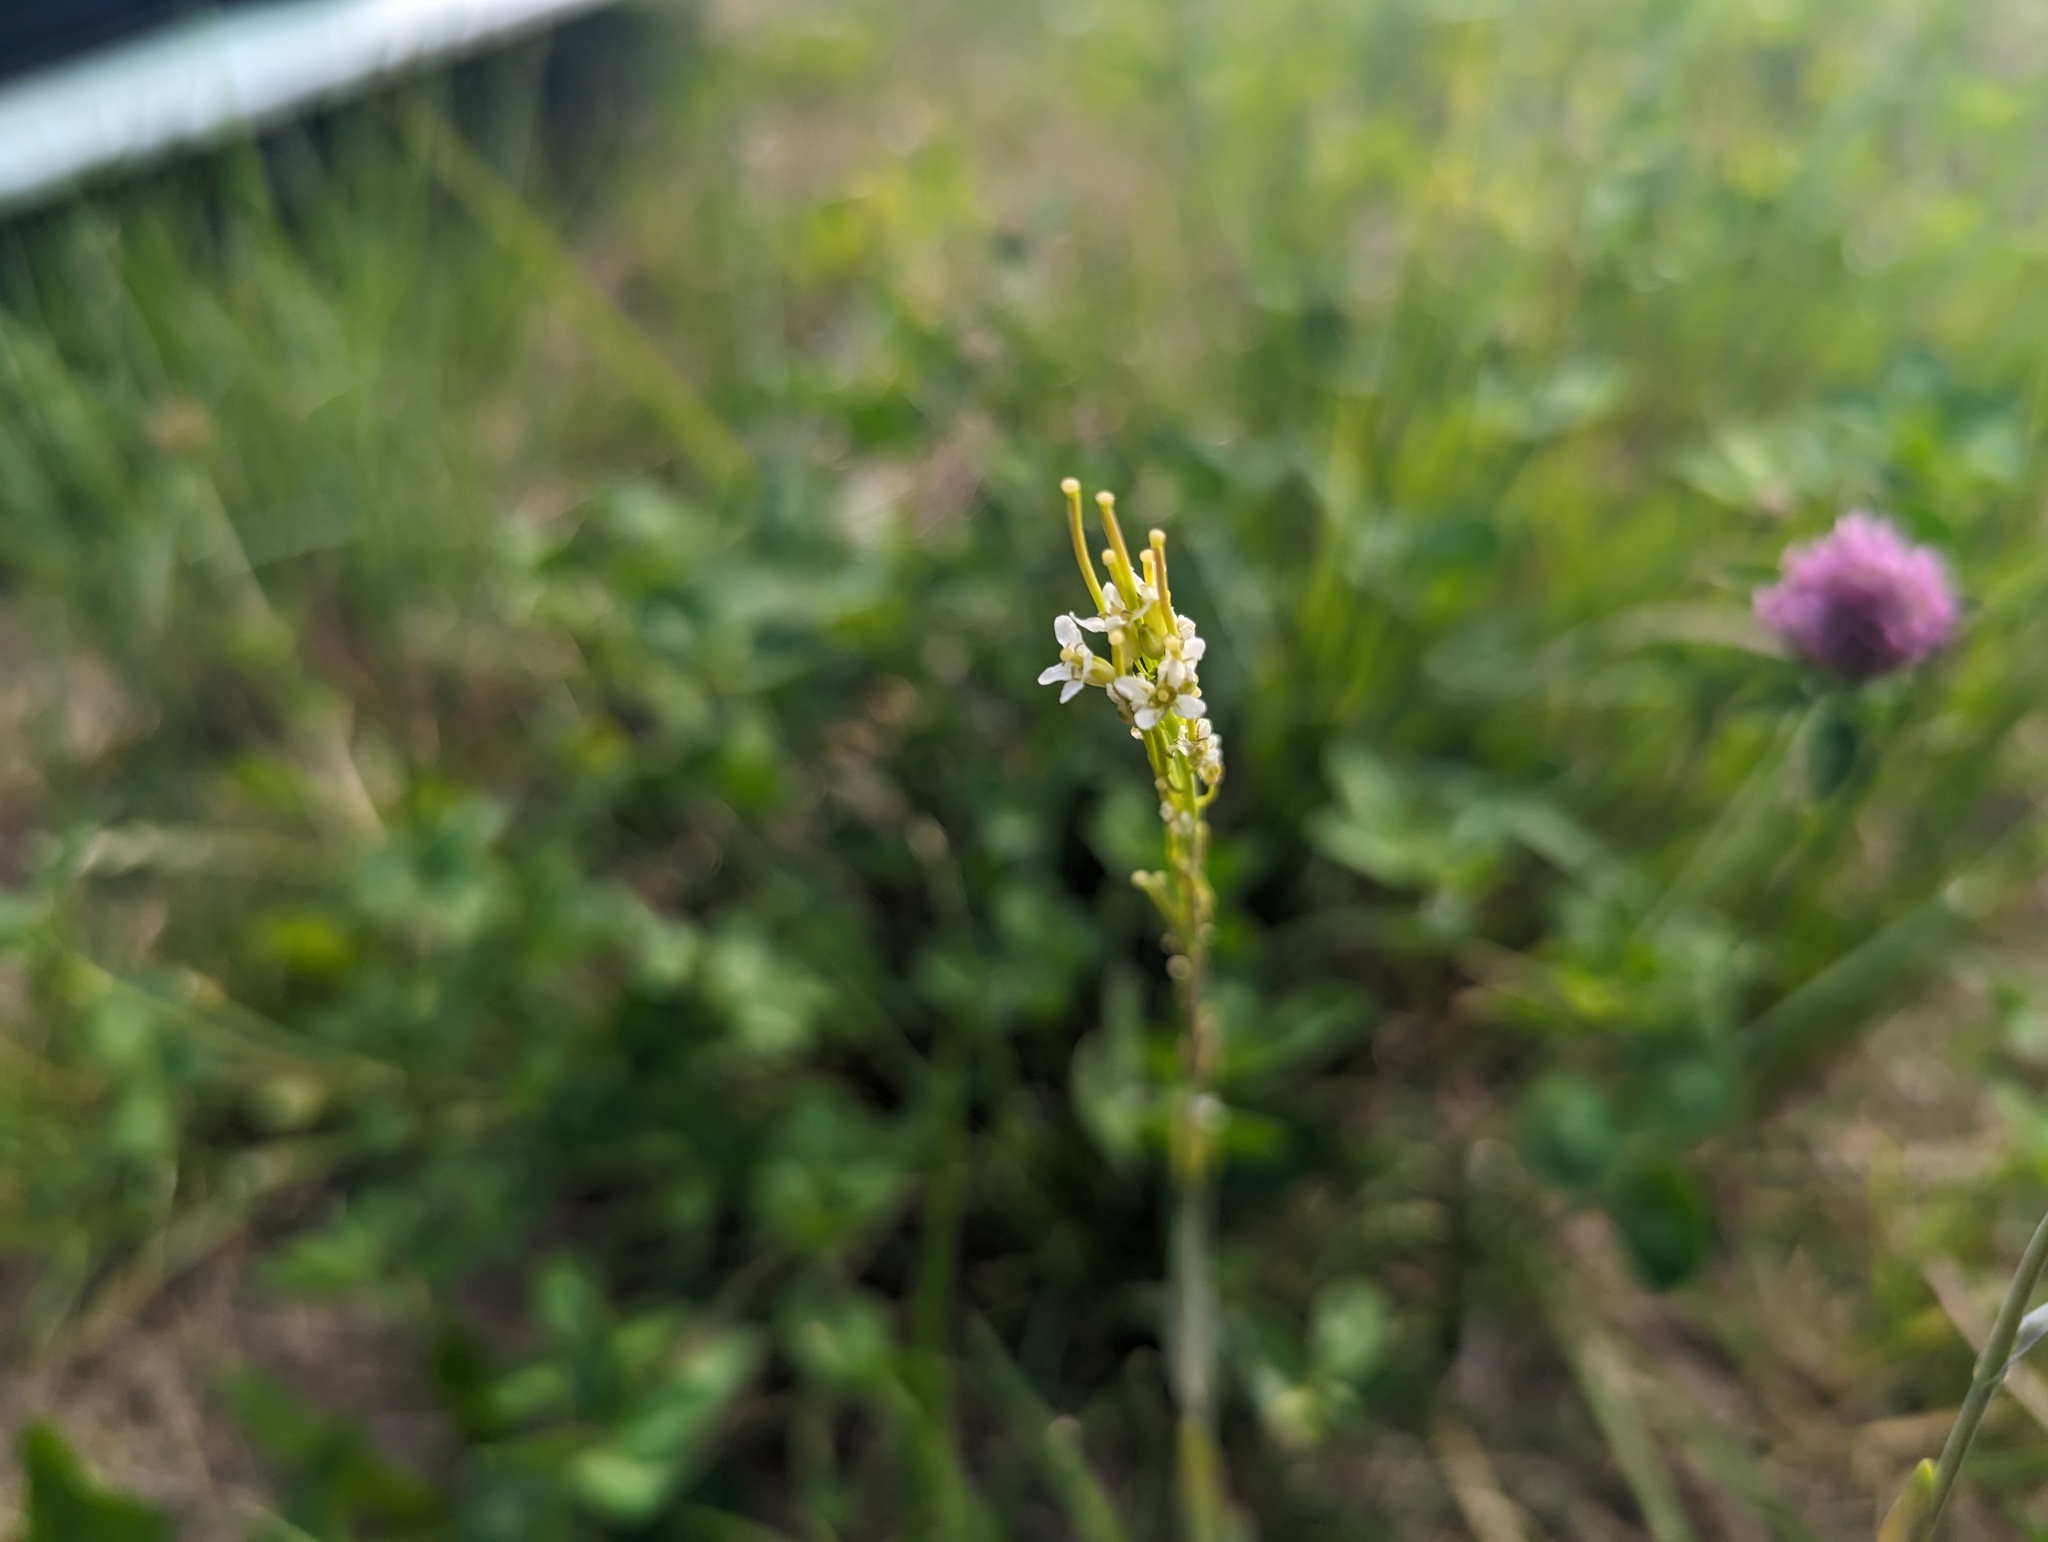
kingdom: Plantae
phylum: Tracheophyta
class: Magnoliopsida
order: Brassicales
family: Brassicaceae
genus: Turritis
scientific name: Turritis glabra
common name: Tower rockcress
